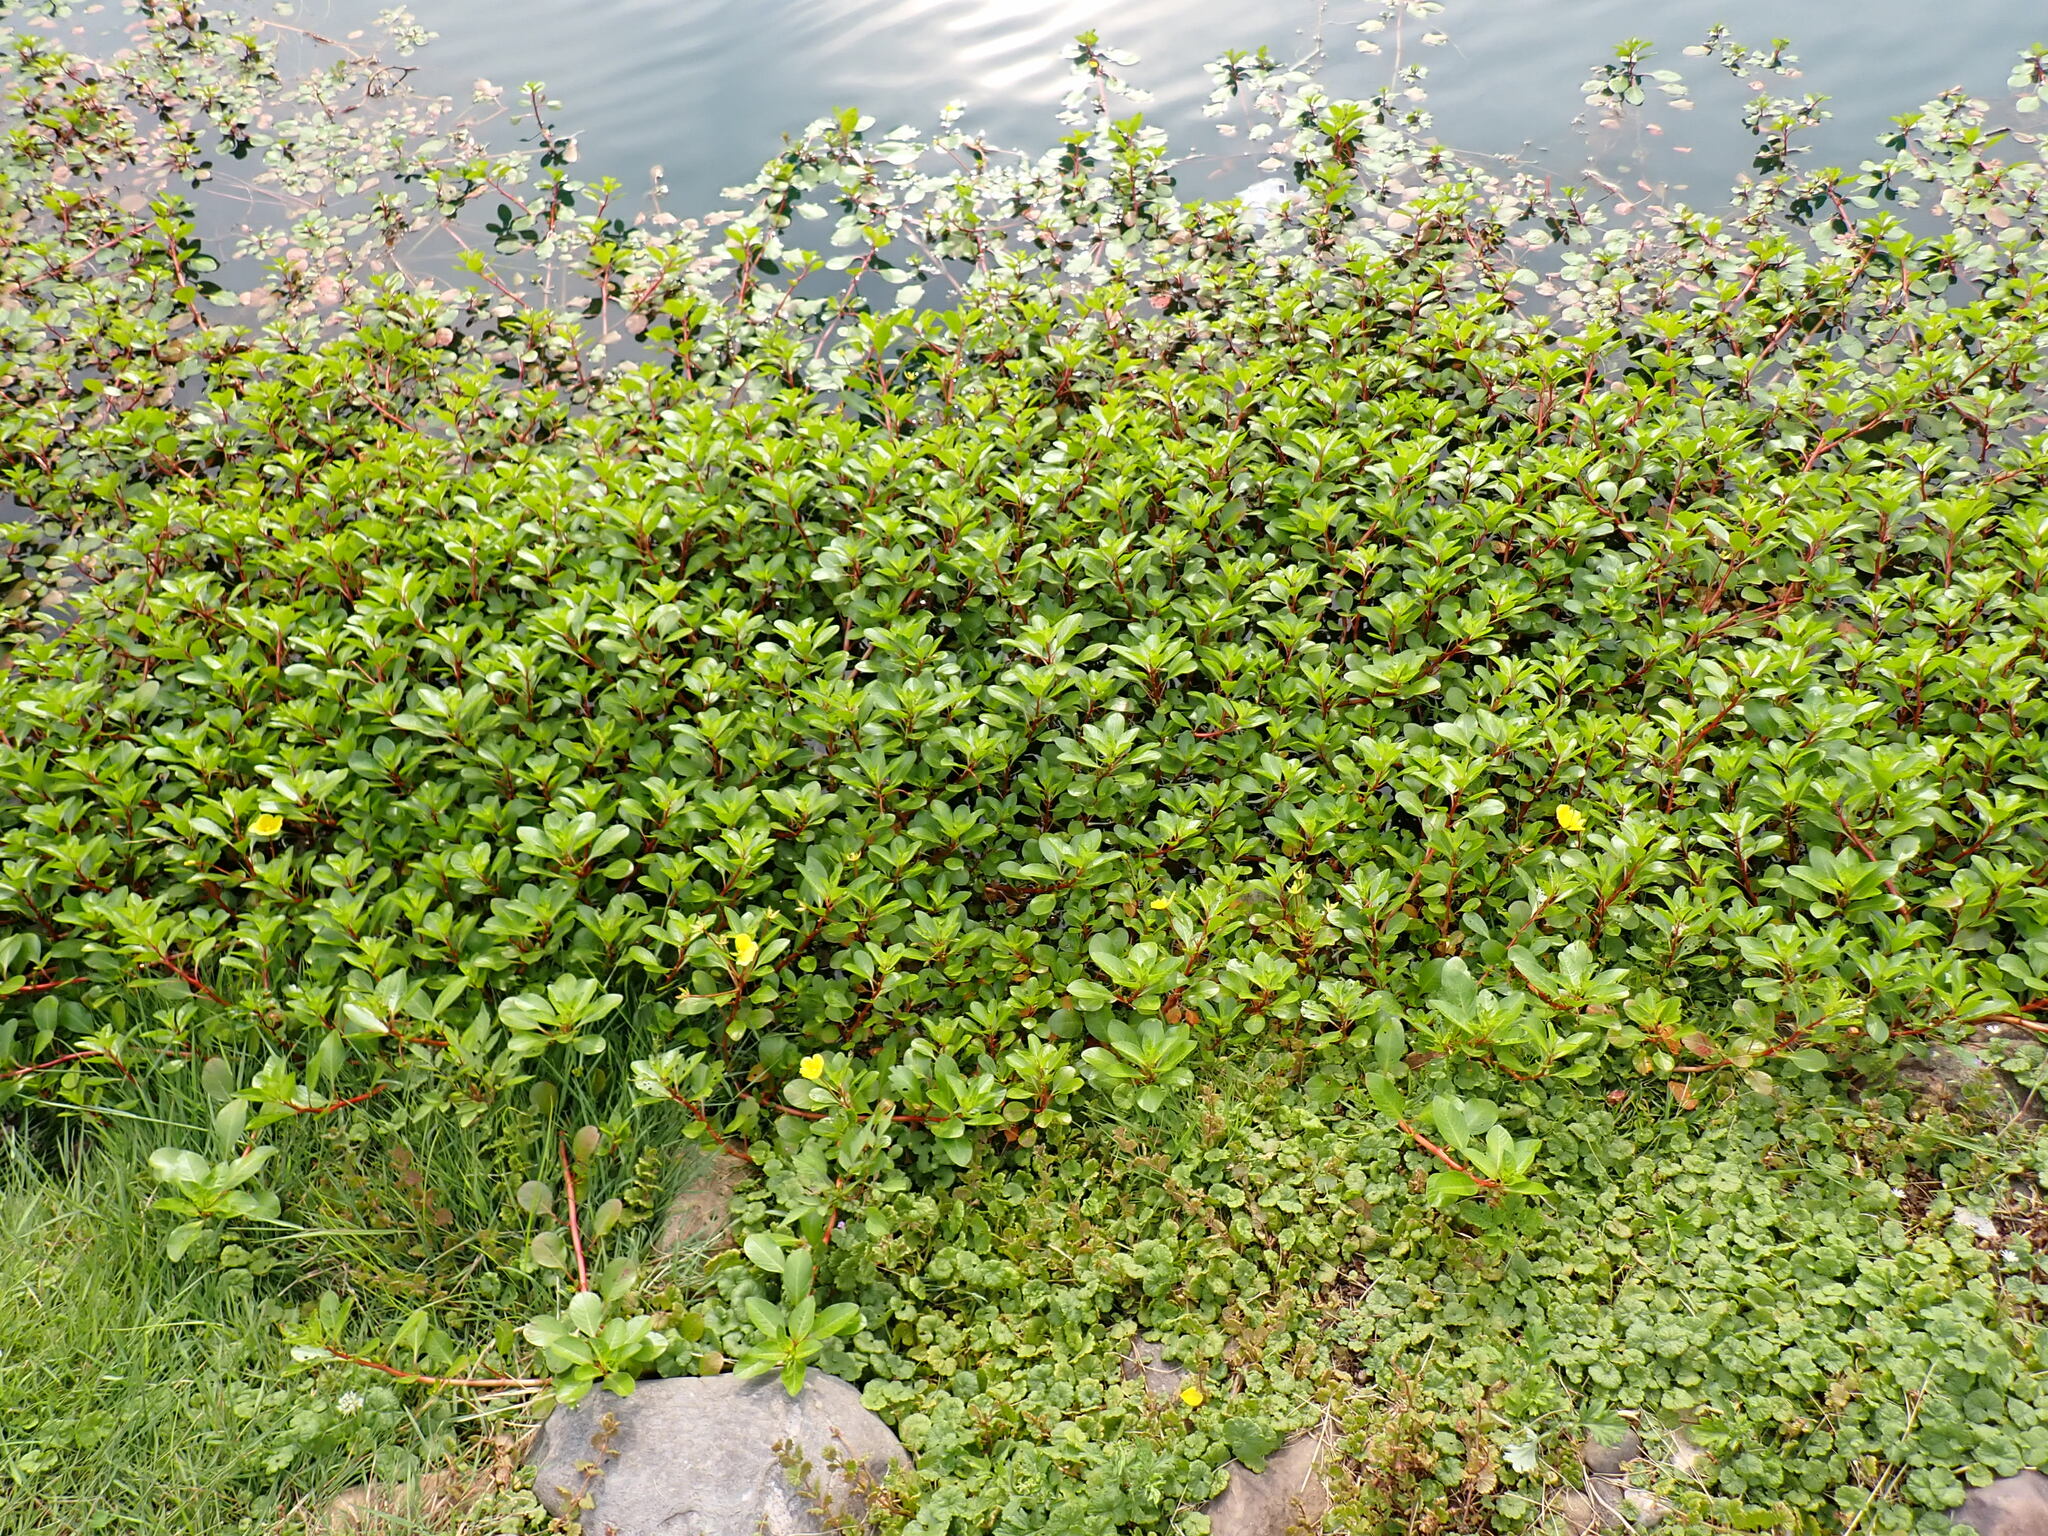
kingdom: Plantae
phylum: Tracheophyta
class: Magnoliopsida
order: Myrtales
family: Onagraceae
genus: Ludwigia
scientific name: Ludwigia peploides
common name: Floating primrose-willow
